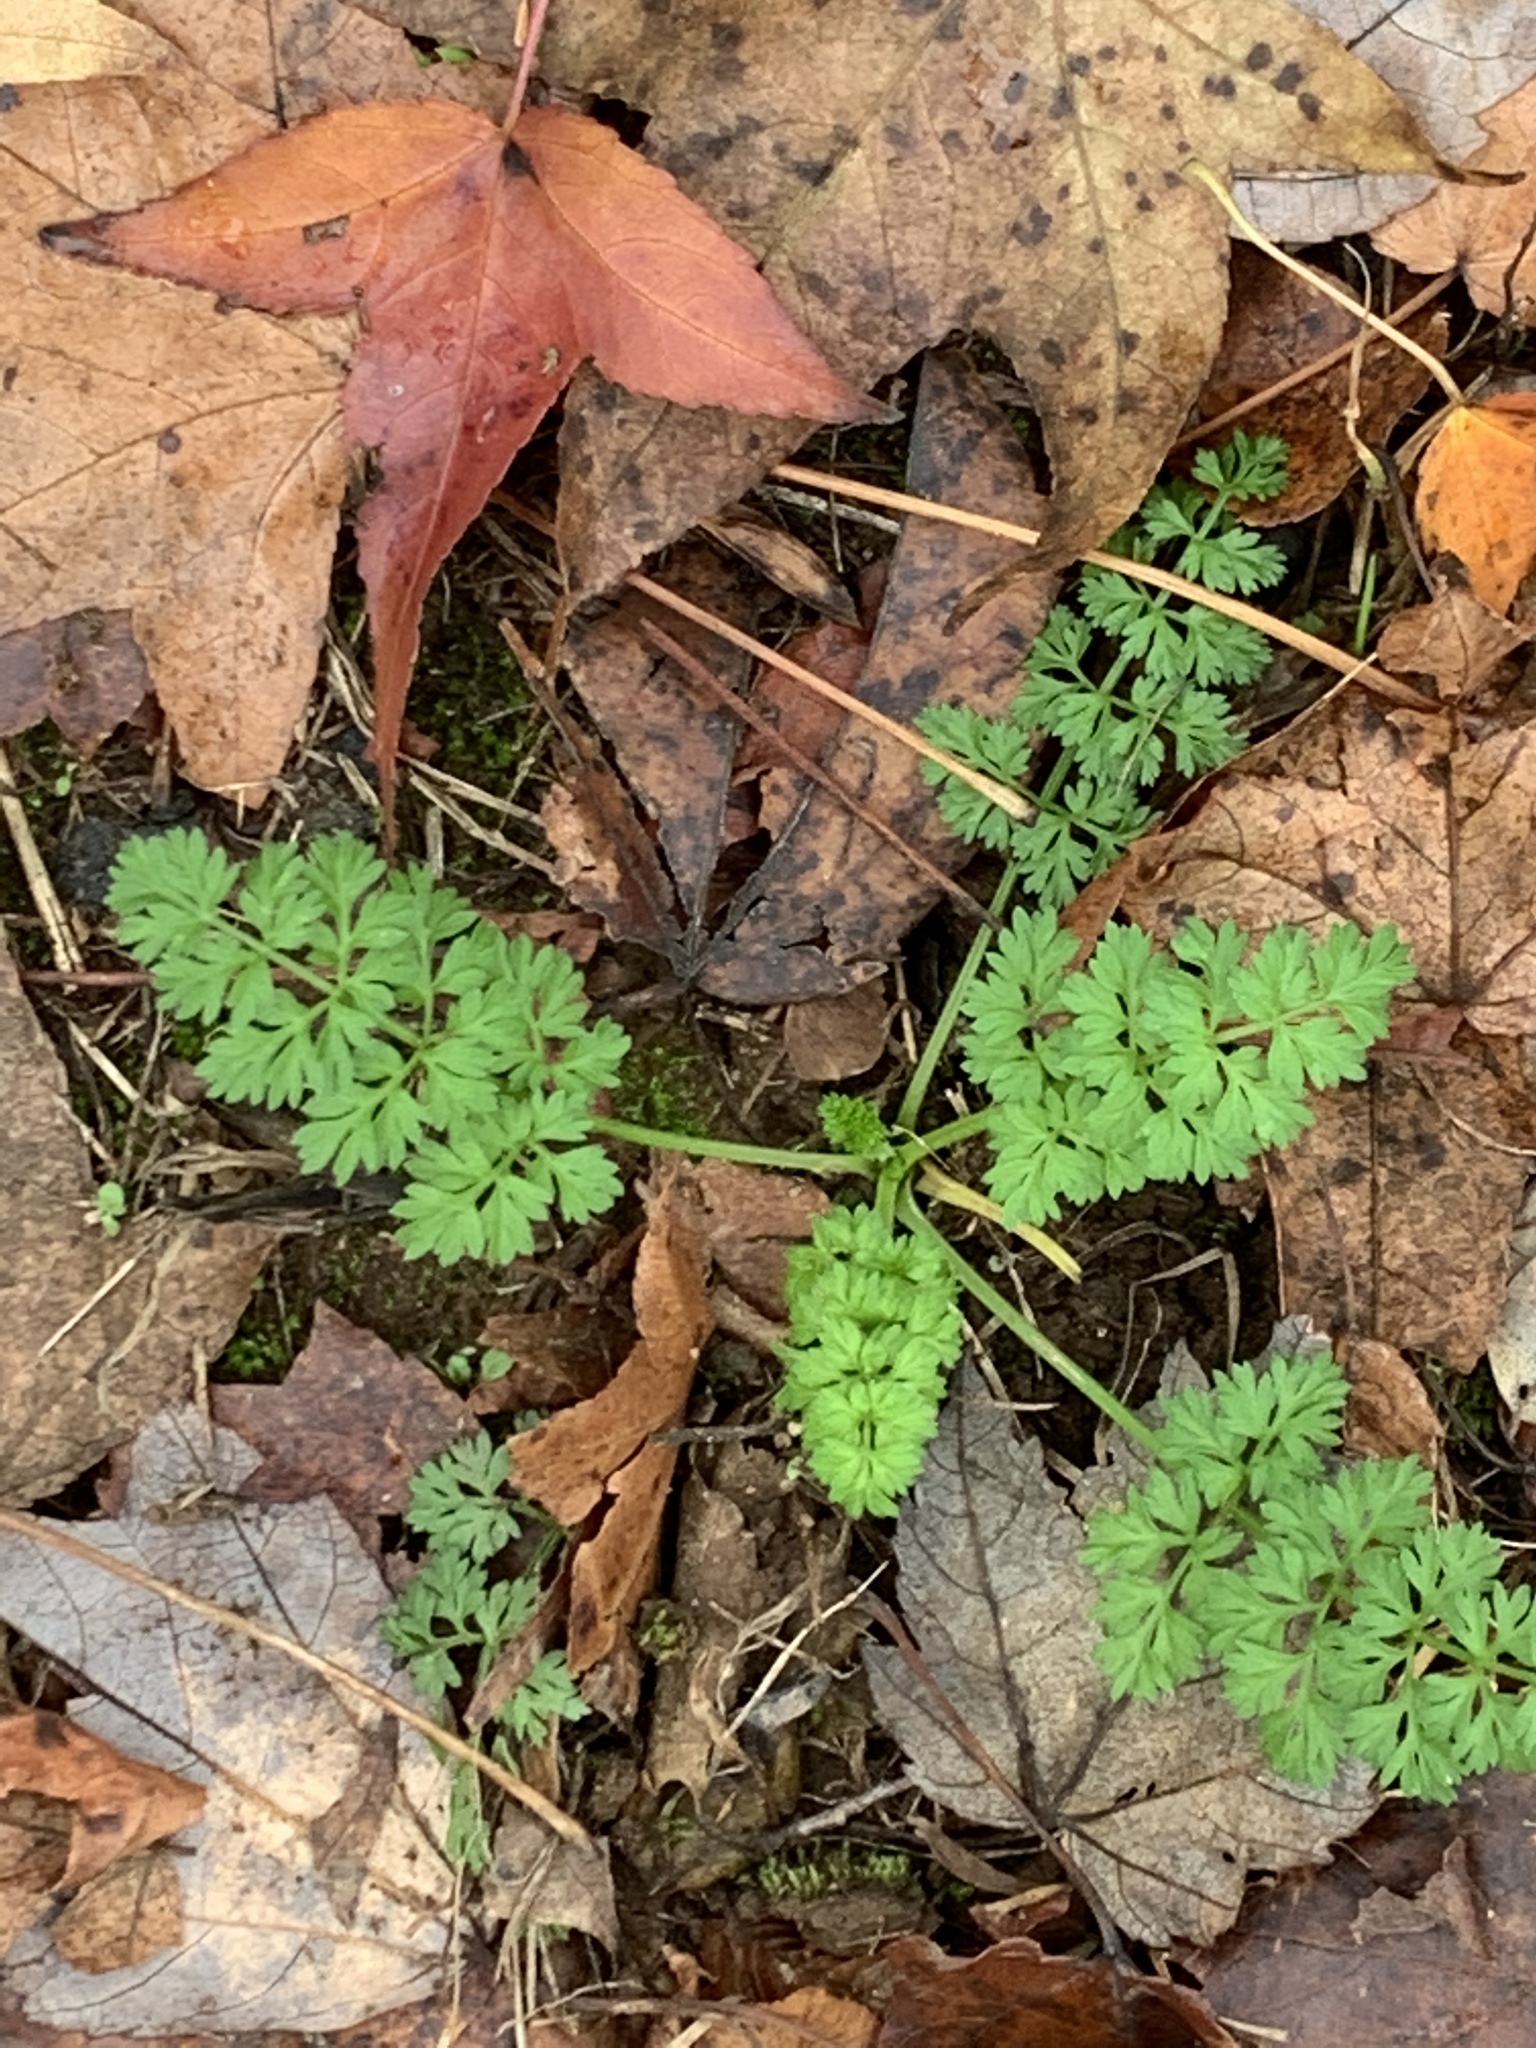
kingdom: Plantae
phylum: Tracheophyta
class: Magnoliopsida
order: Apiales
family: Apiaceae
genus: Daucus
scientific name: Daucus carota
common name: Wild carrot
